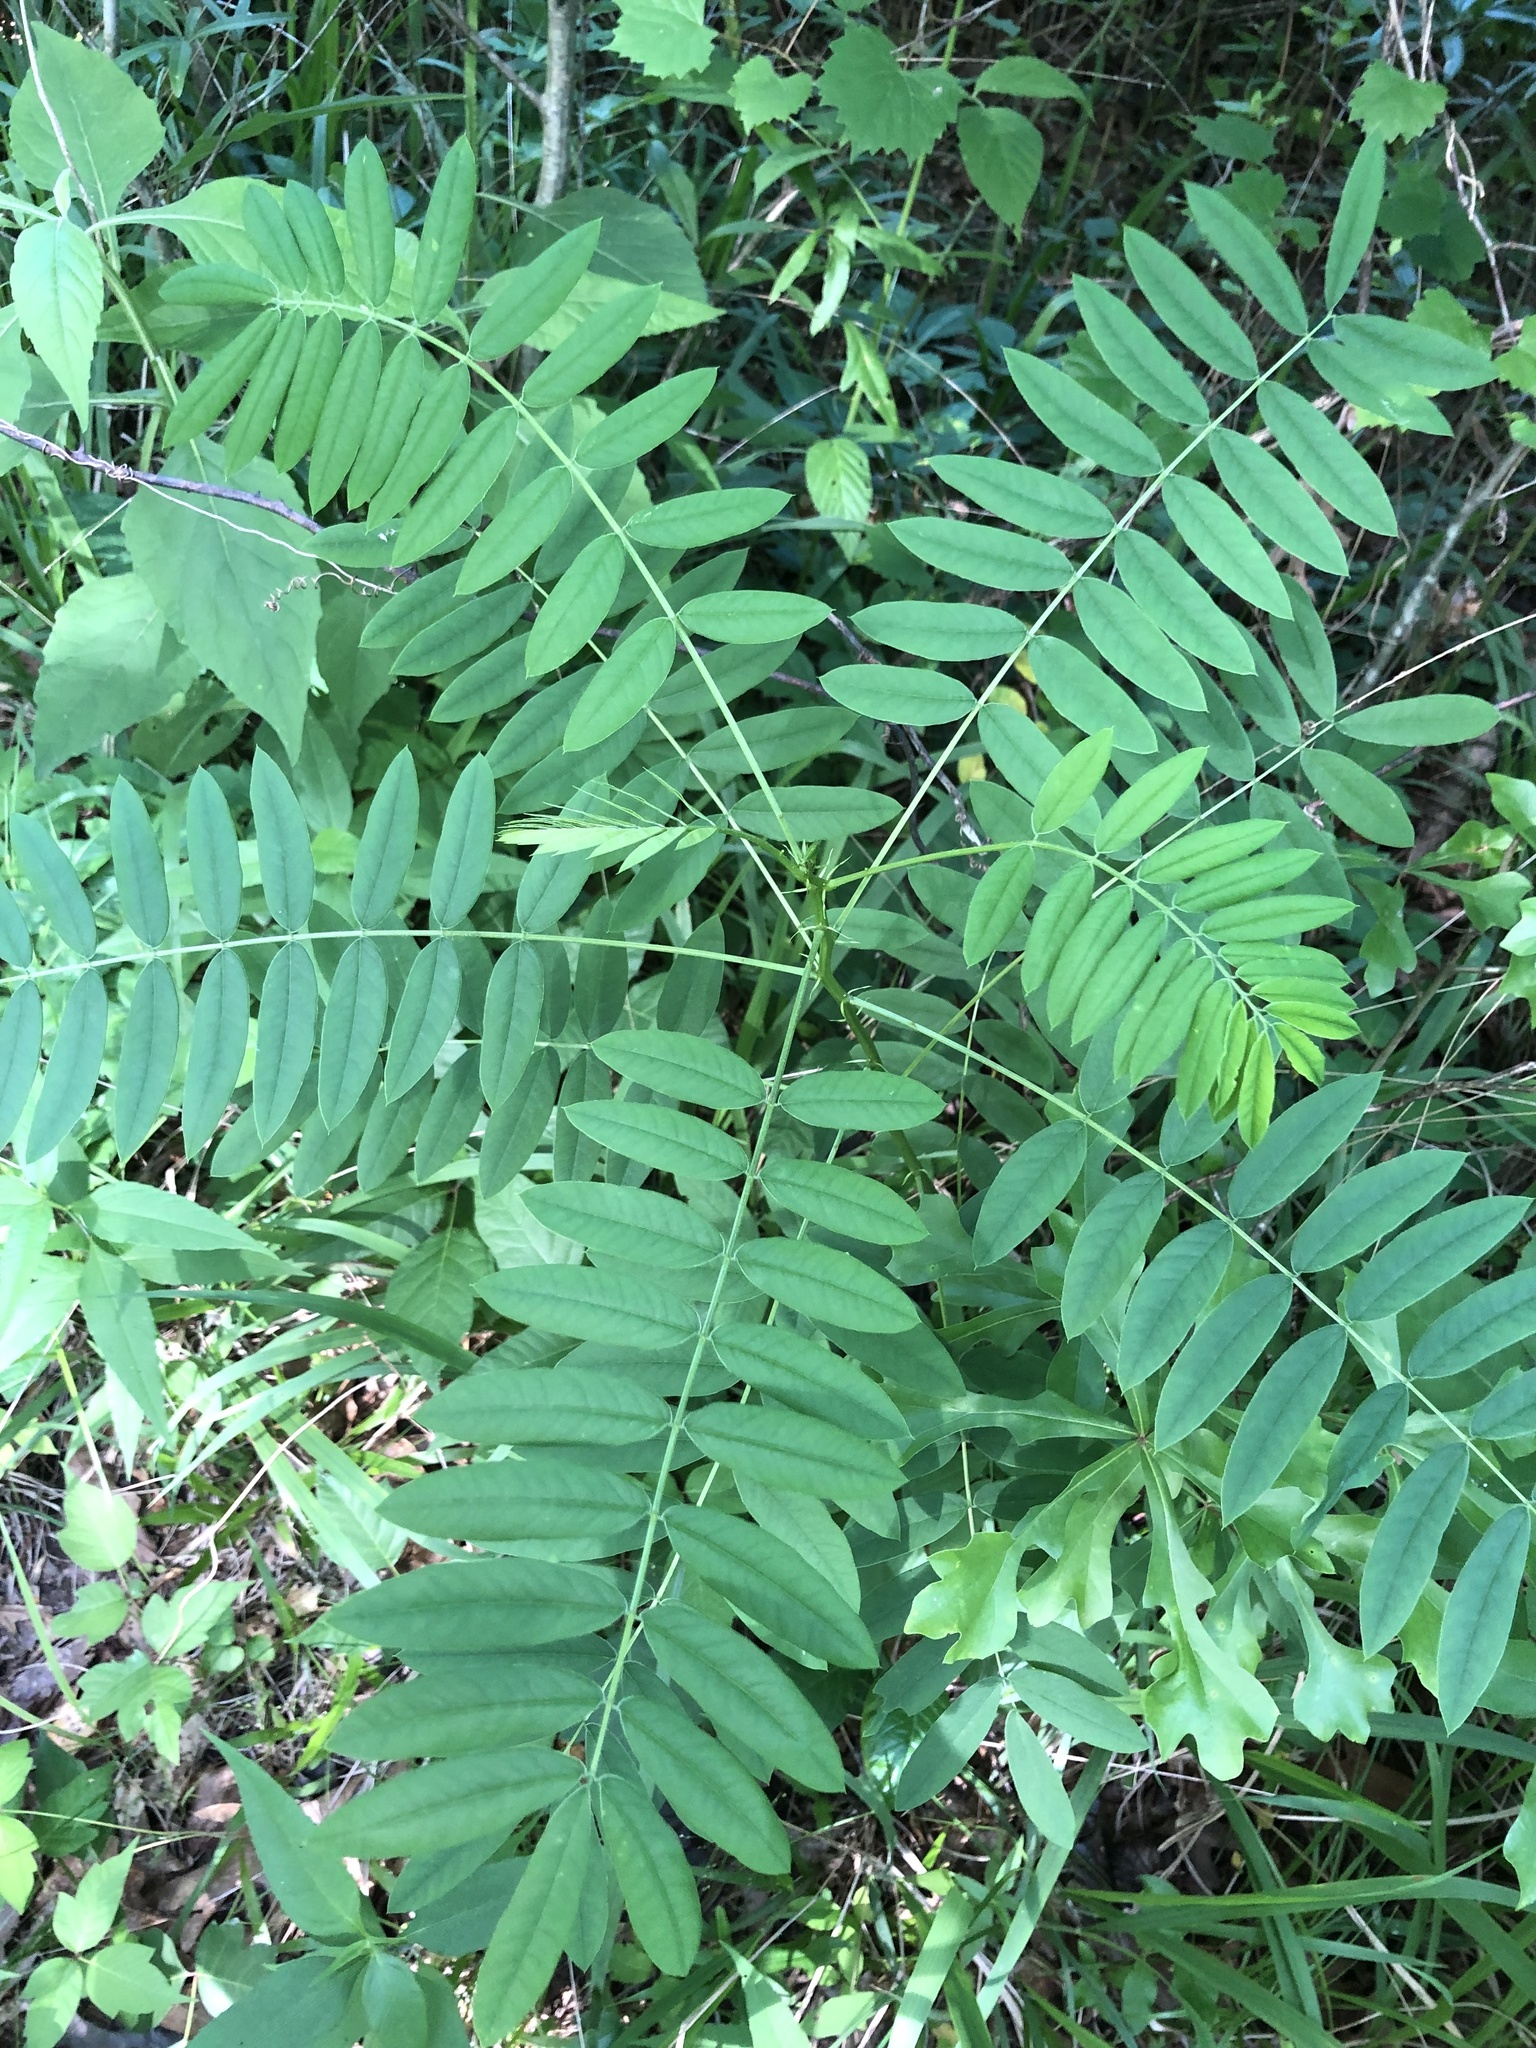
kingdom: Plantae
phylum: Tracheophyta
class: Magnoliopsida
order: Fabales
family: Fabaceae
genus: Senna
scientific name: Senna marilandica
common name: American senna
